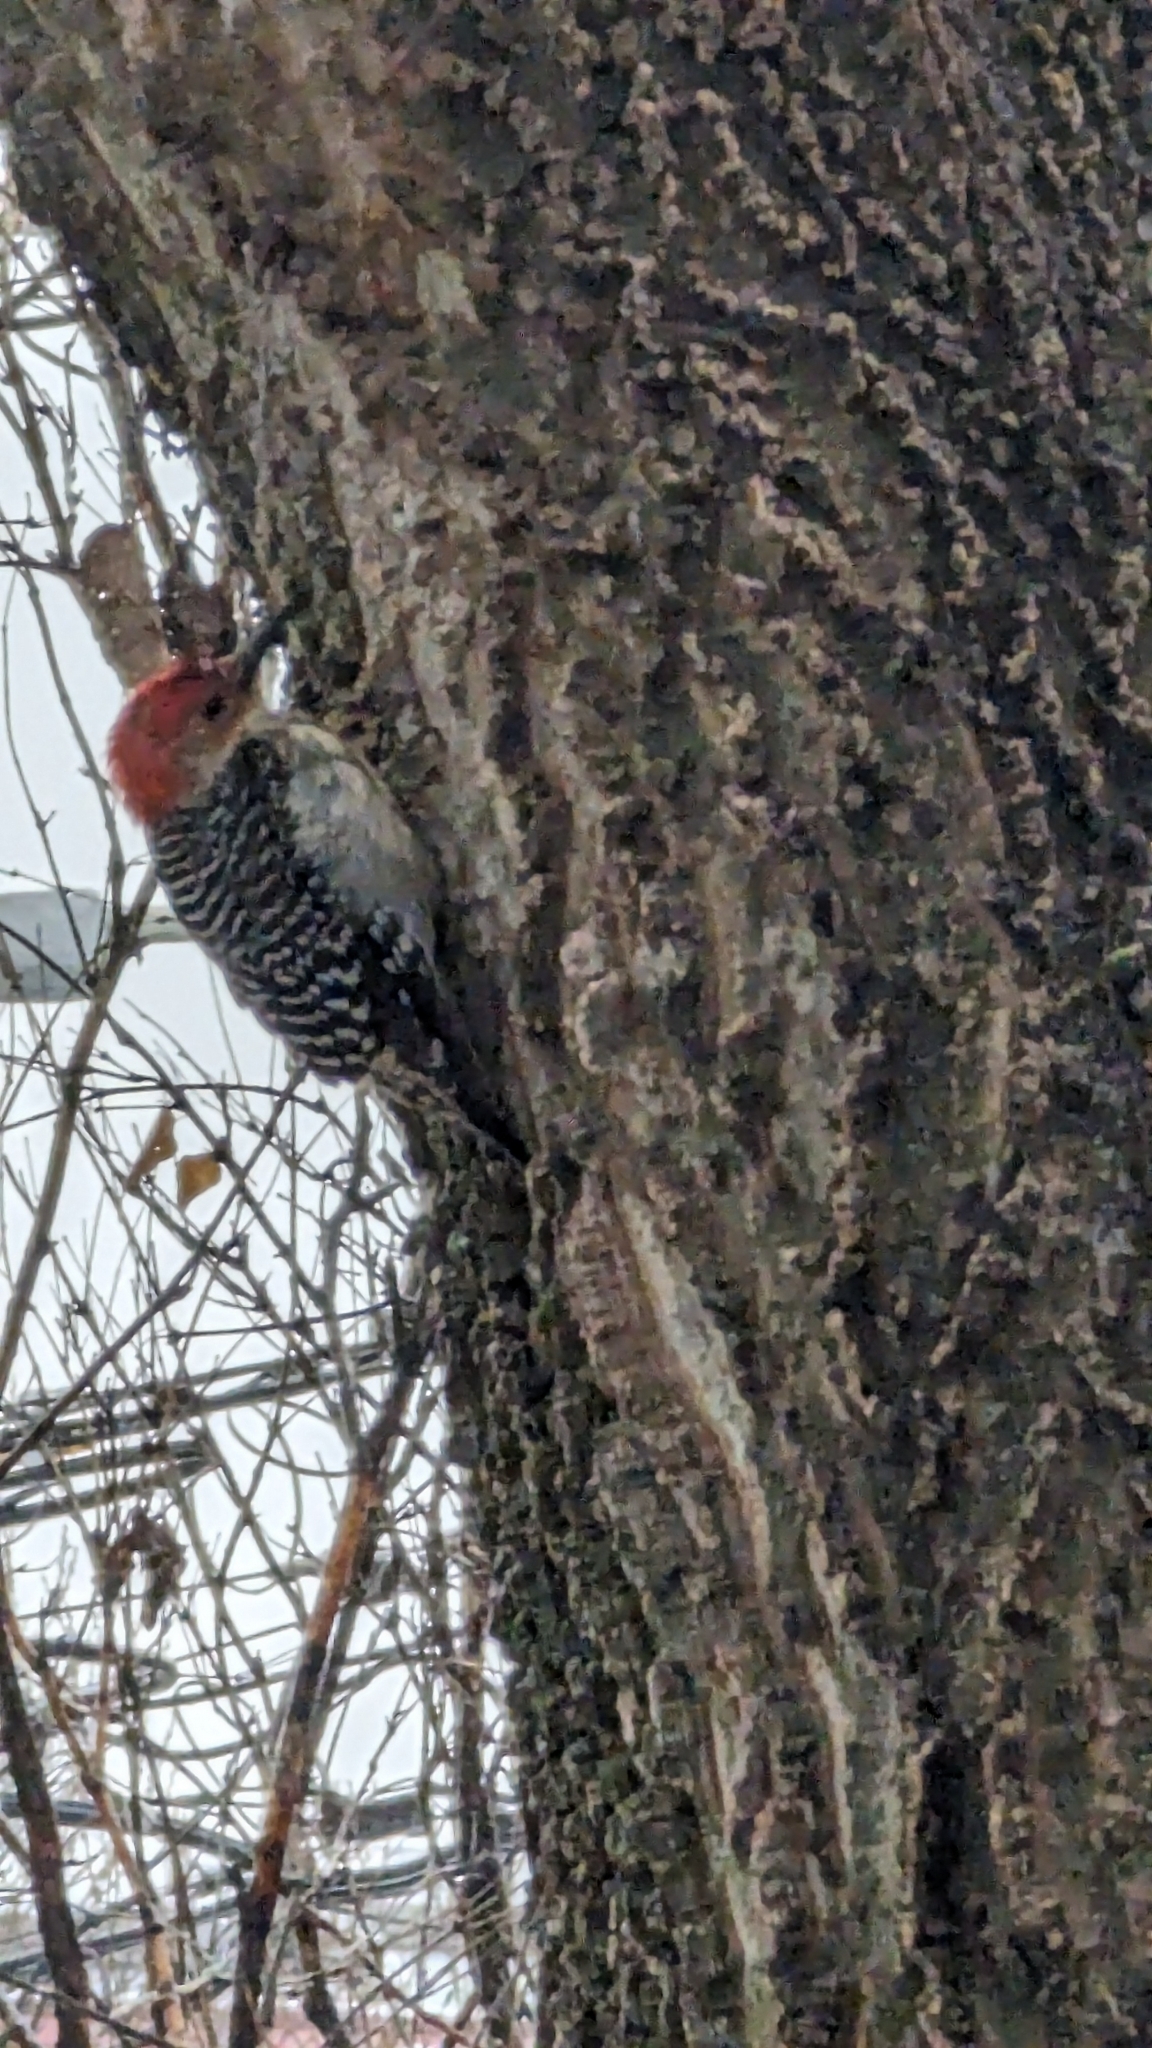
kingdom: Animalia
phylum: Chordata
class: Aves
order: Piciformes
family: Picidae
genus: Melanerpes
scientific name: Melanerpes carolinus
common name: Red-bellied woodpecker
